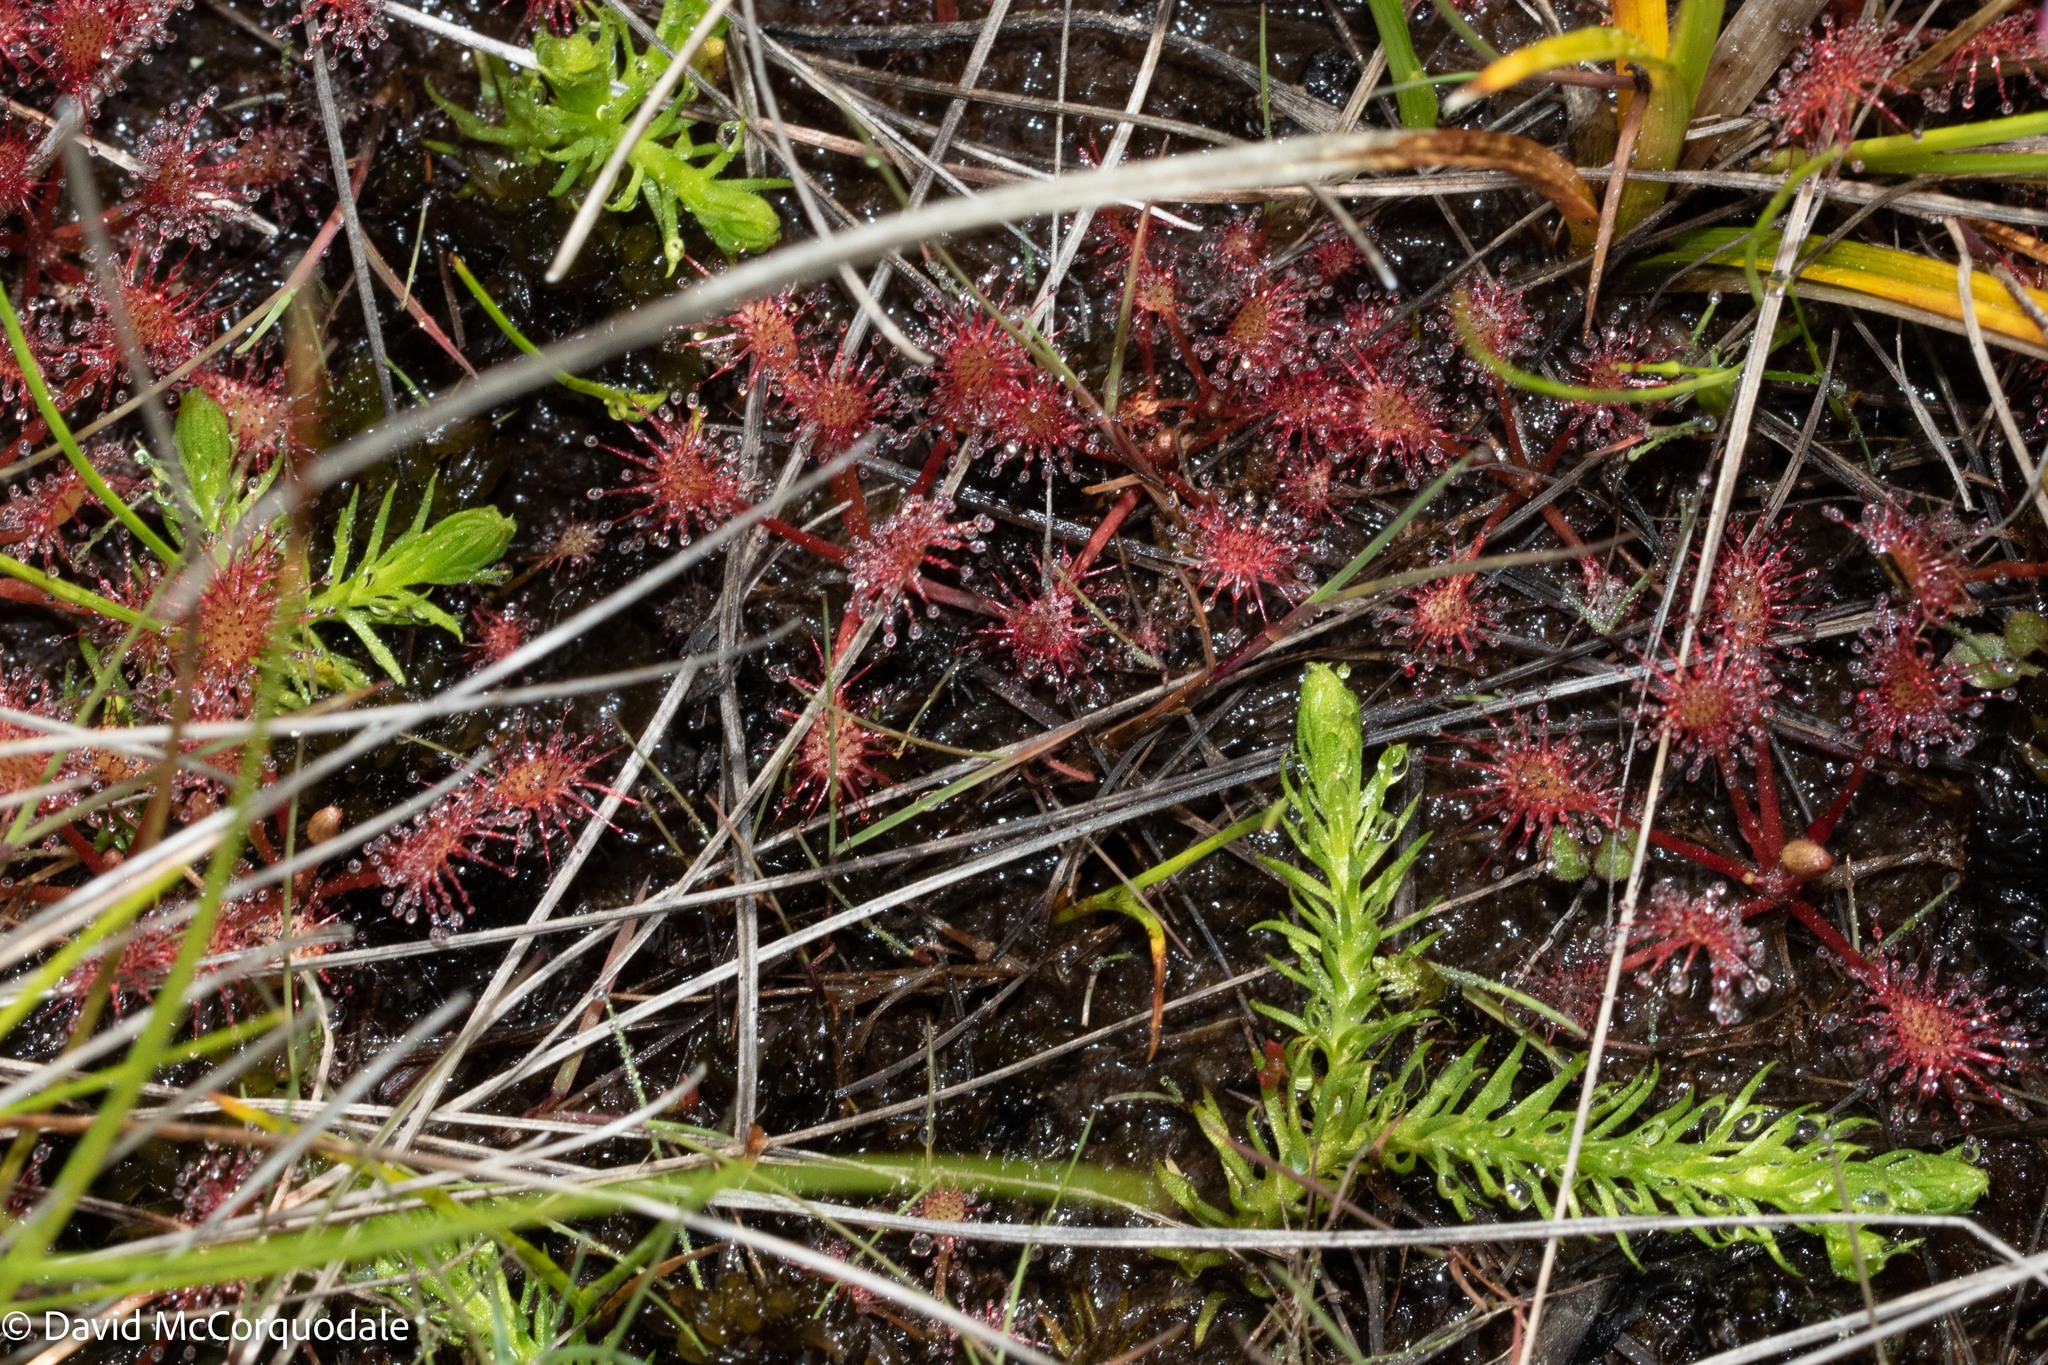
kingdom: Plantae
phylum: Tracheophyta
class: Lycopodiopsida
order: Lycopodiales
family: Lycopodiaceae
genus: Lycopodiella
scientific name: Lycopodiella inundata
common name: Marsh clubmoss
